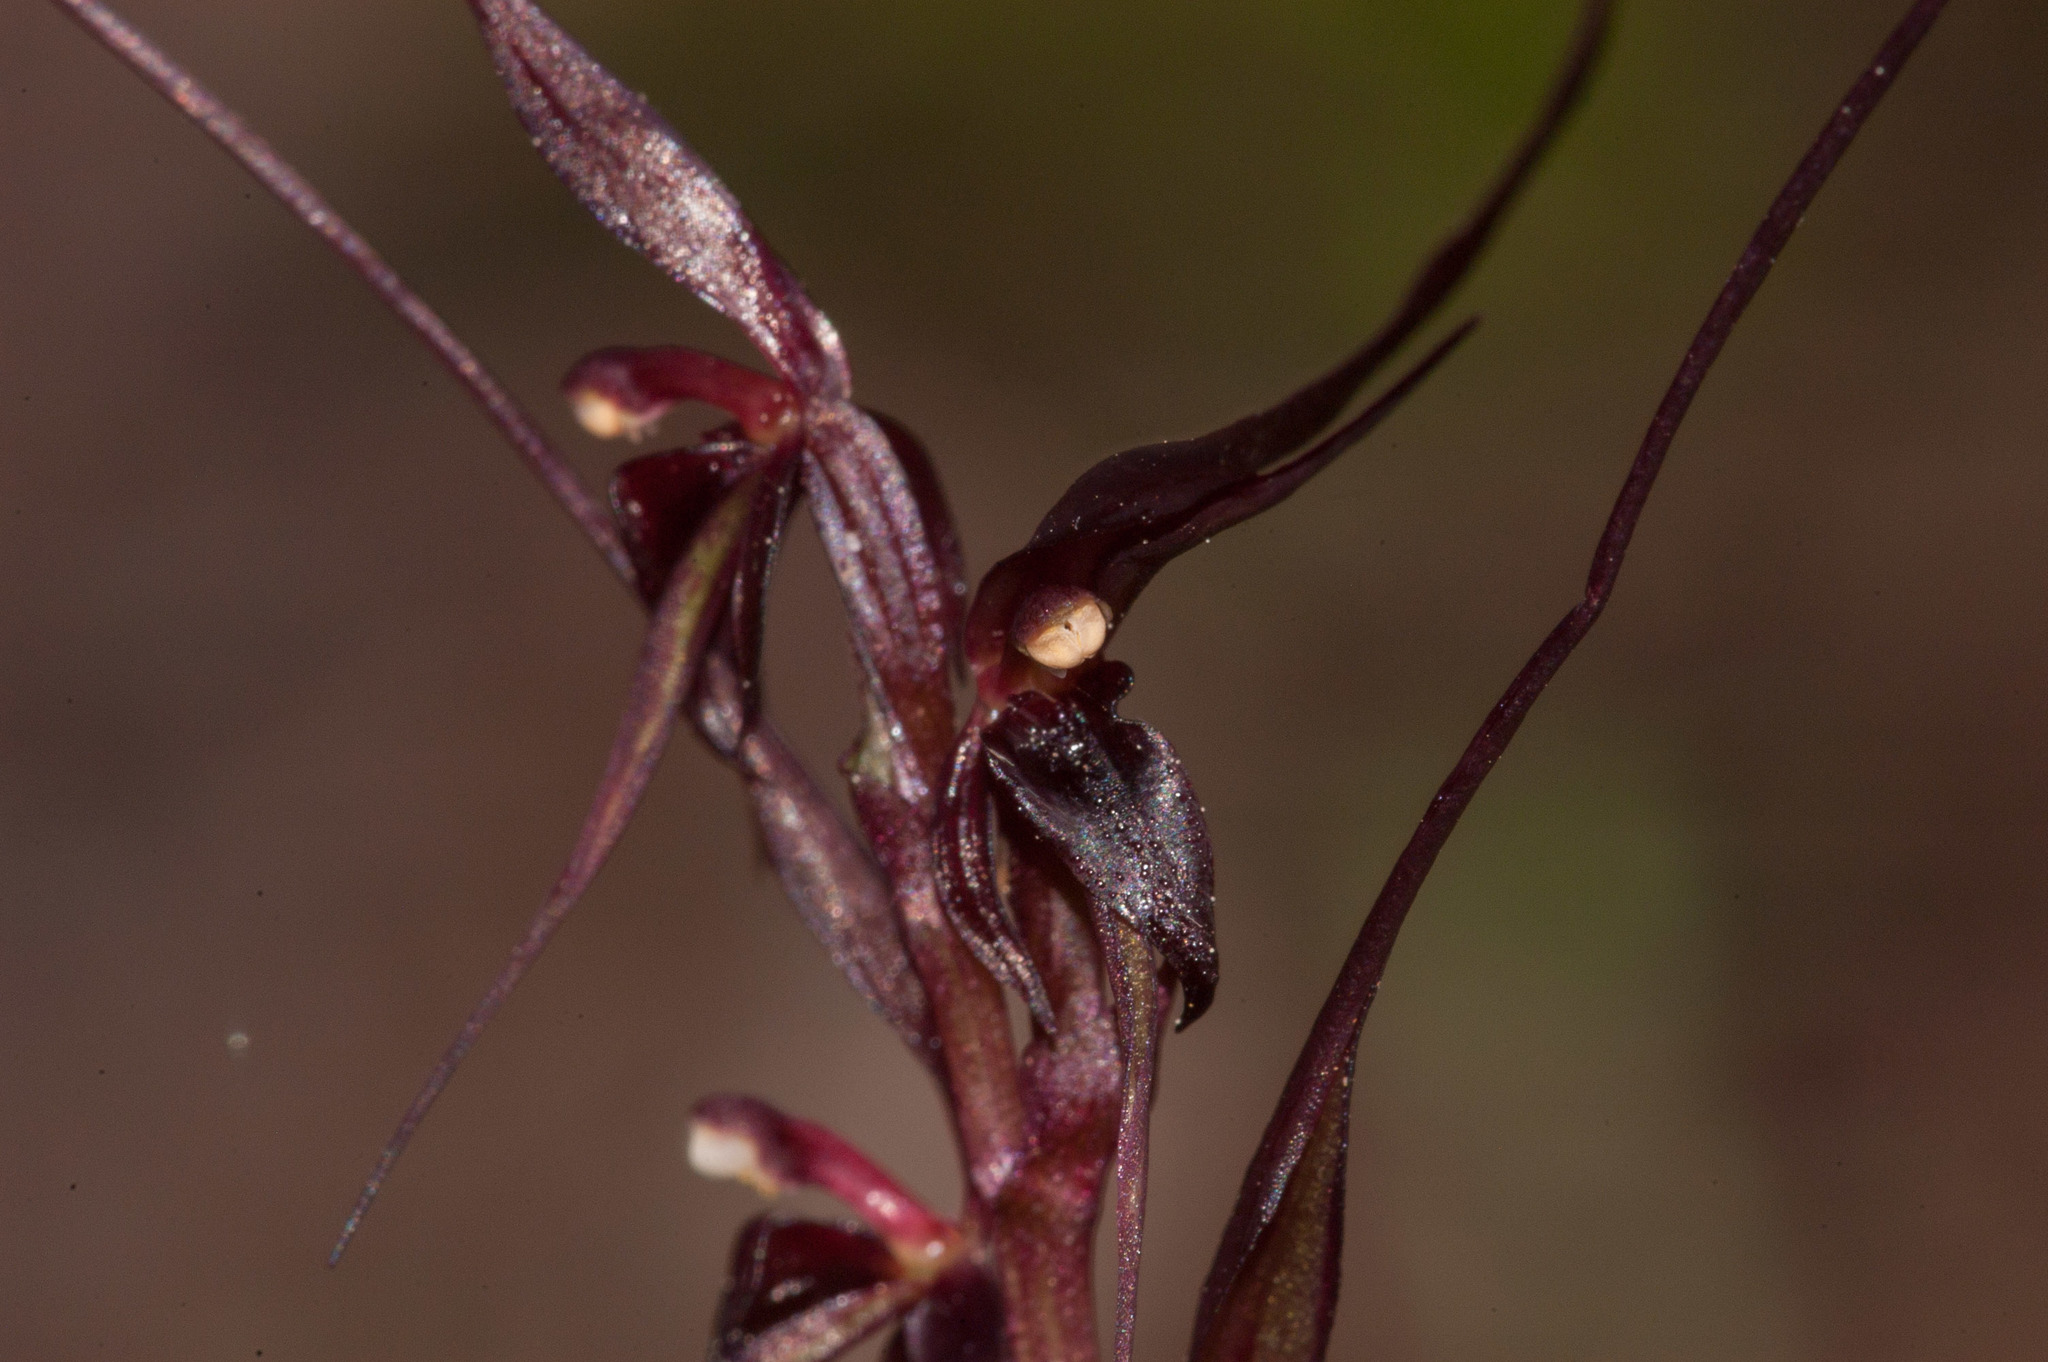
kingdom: Plantae
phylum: Tracheophyta
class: Liliopsida
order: Asparagales
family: Orchidaceae
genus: Acianthus
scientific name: Acianthus caudatus
